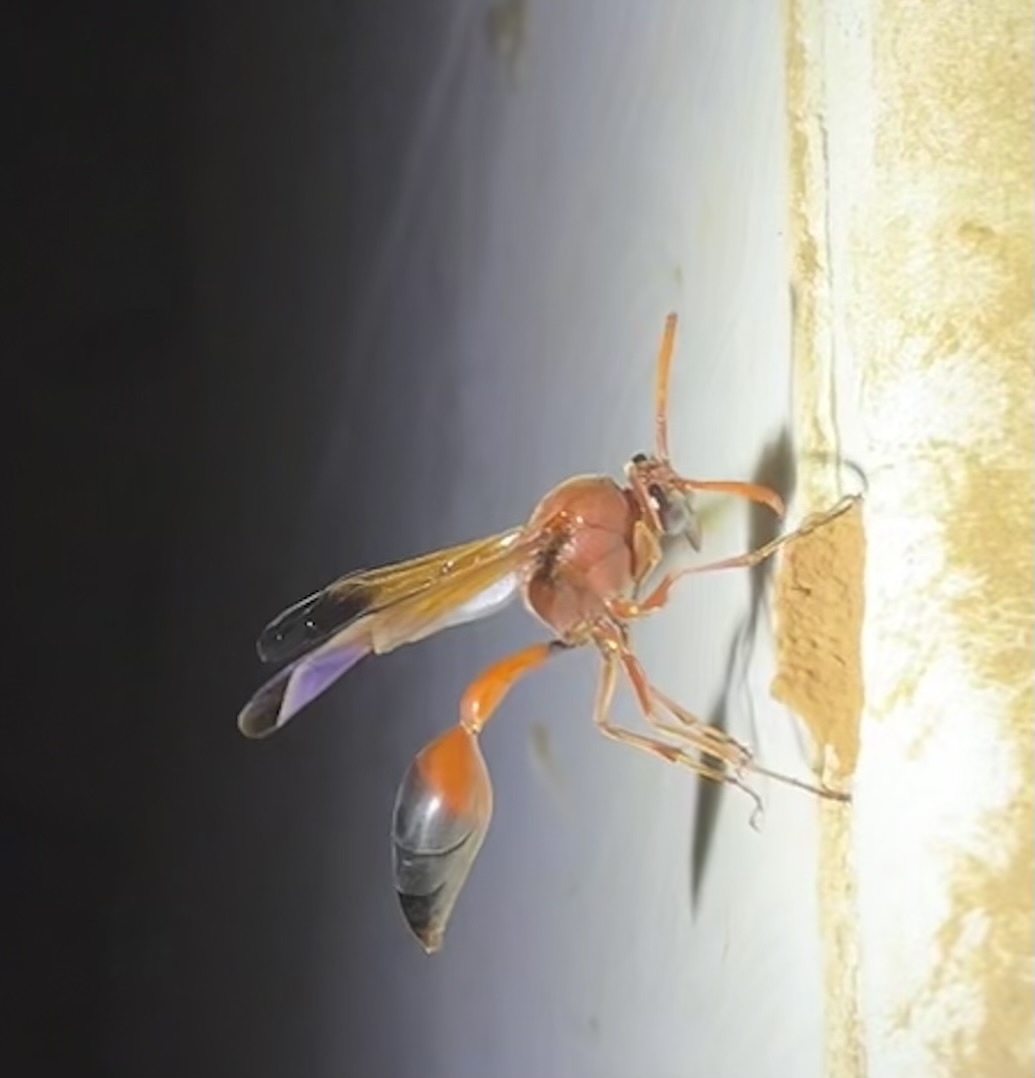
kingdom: Animalia
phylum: Arthropoda
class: Insecta
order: Hymenoptera
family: Eumenidae
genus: Delta
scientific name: Delta dimidiatipenne
